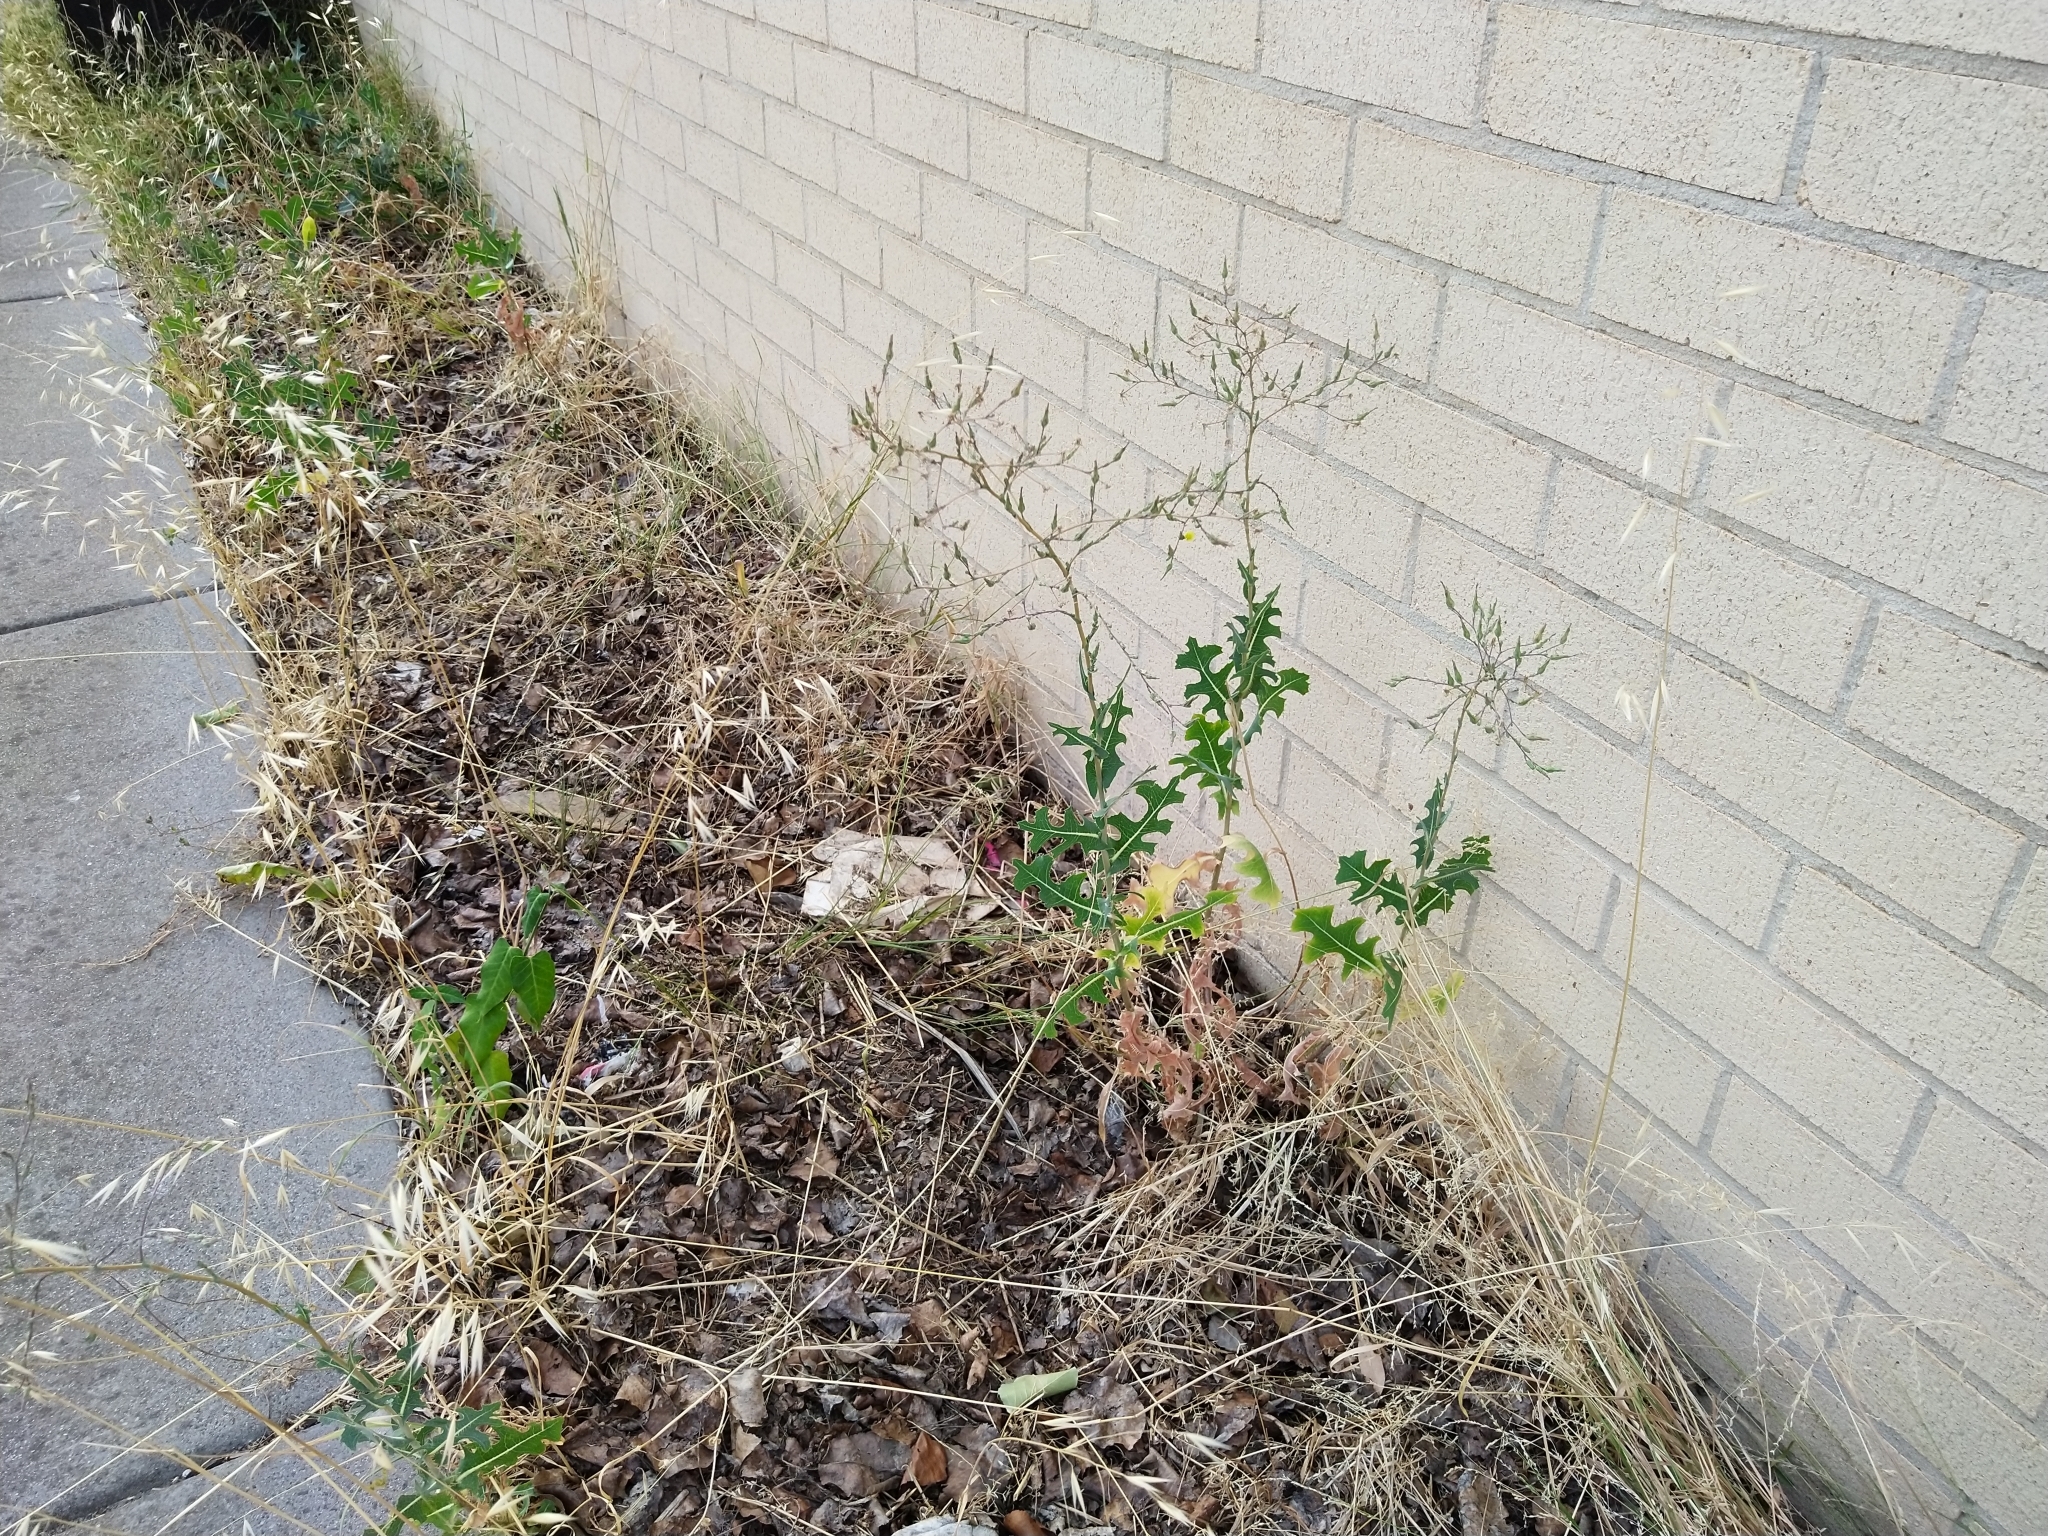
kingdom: Plantae
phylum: Tracheophyta
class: Magnoliopsida
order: Asterales
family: Asteraceae
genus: Lactuca
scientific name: Lactuca serriola
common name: Prickly lettuce
